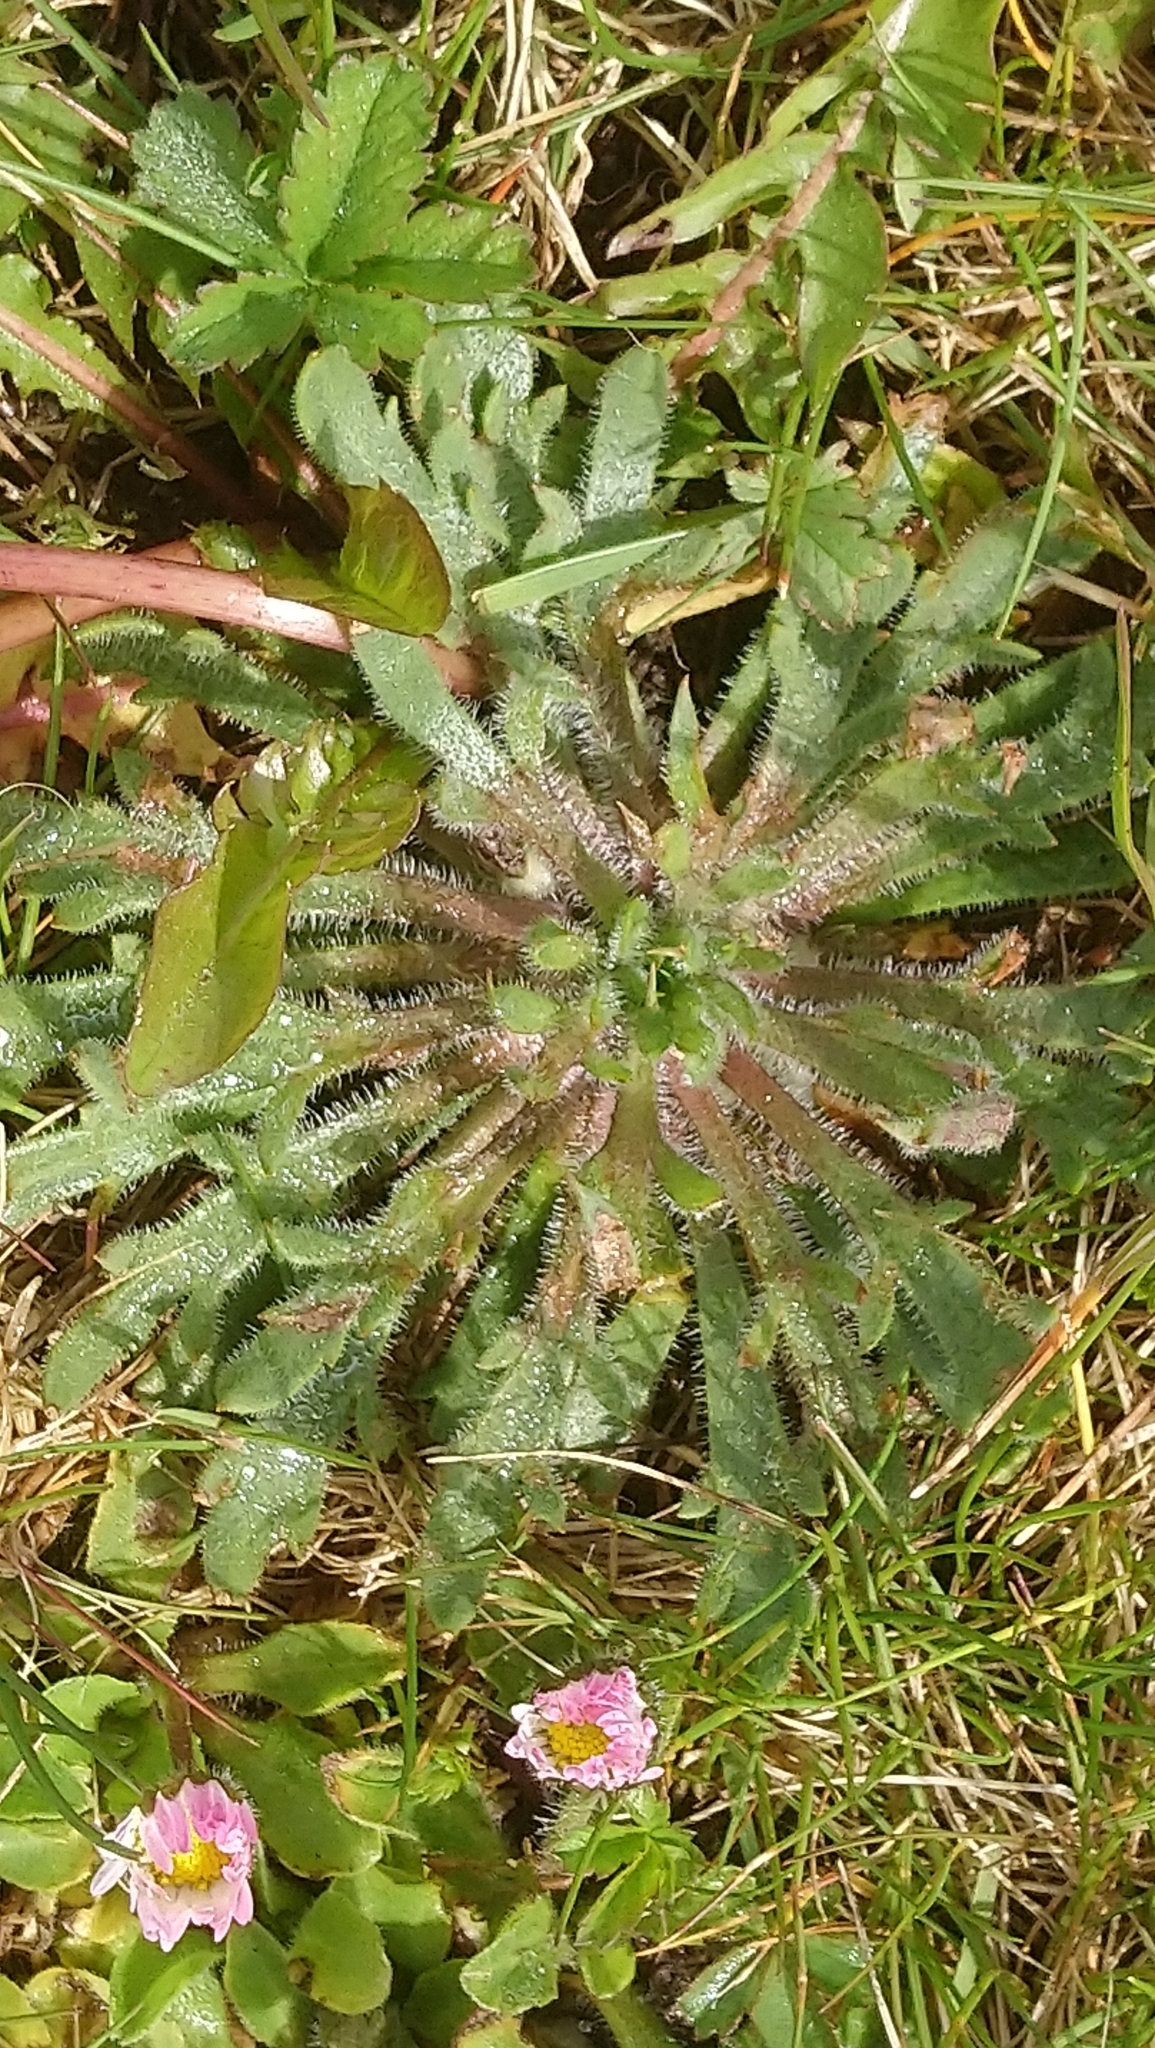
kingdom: Plantae
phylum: Tracheophyta
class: Magnoliopsida
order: Lamiales
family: Plantaginaceae
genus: Plantago
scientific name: Plantago coronopus
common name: Buck's-horn plantain
